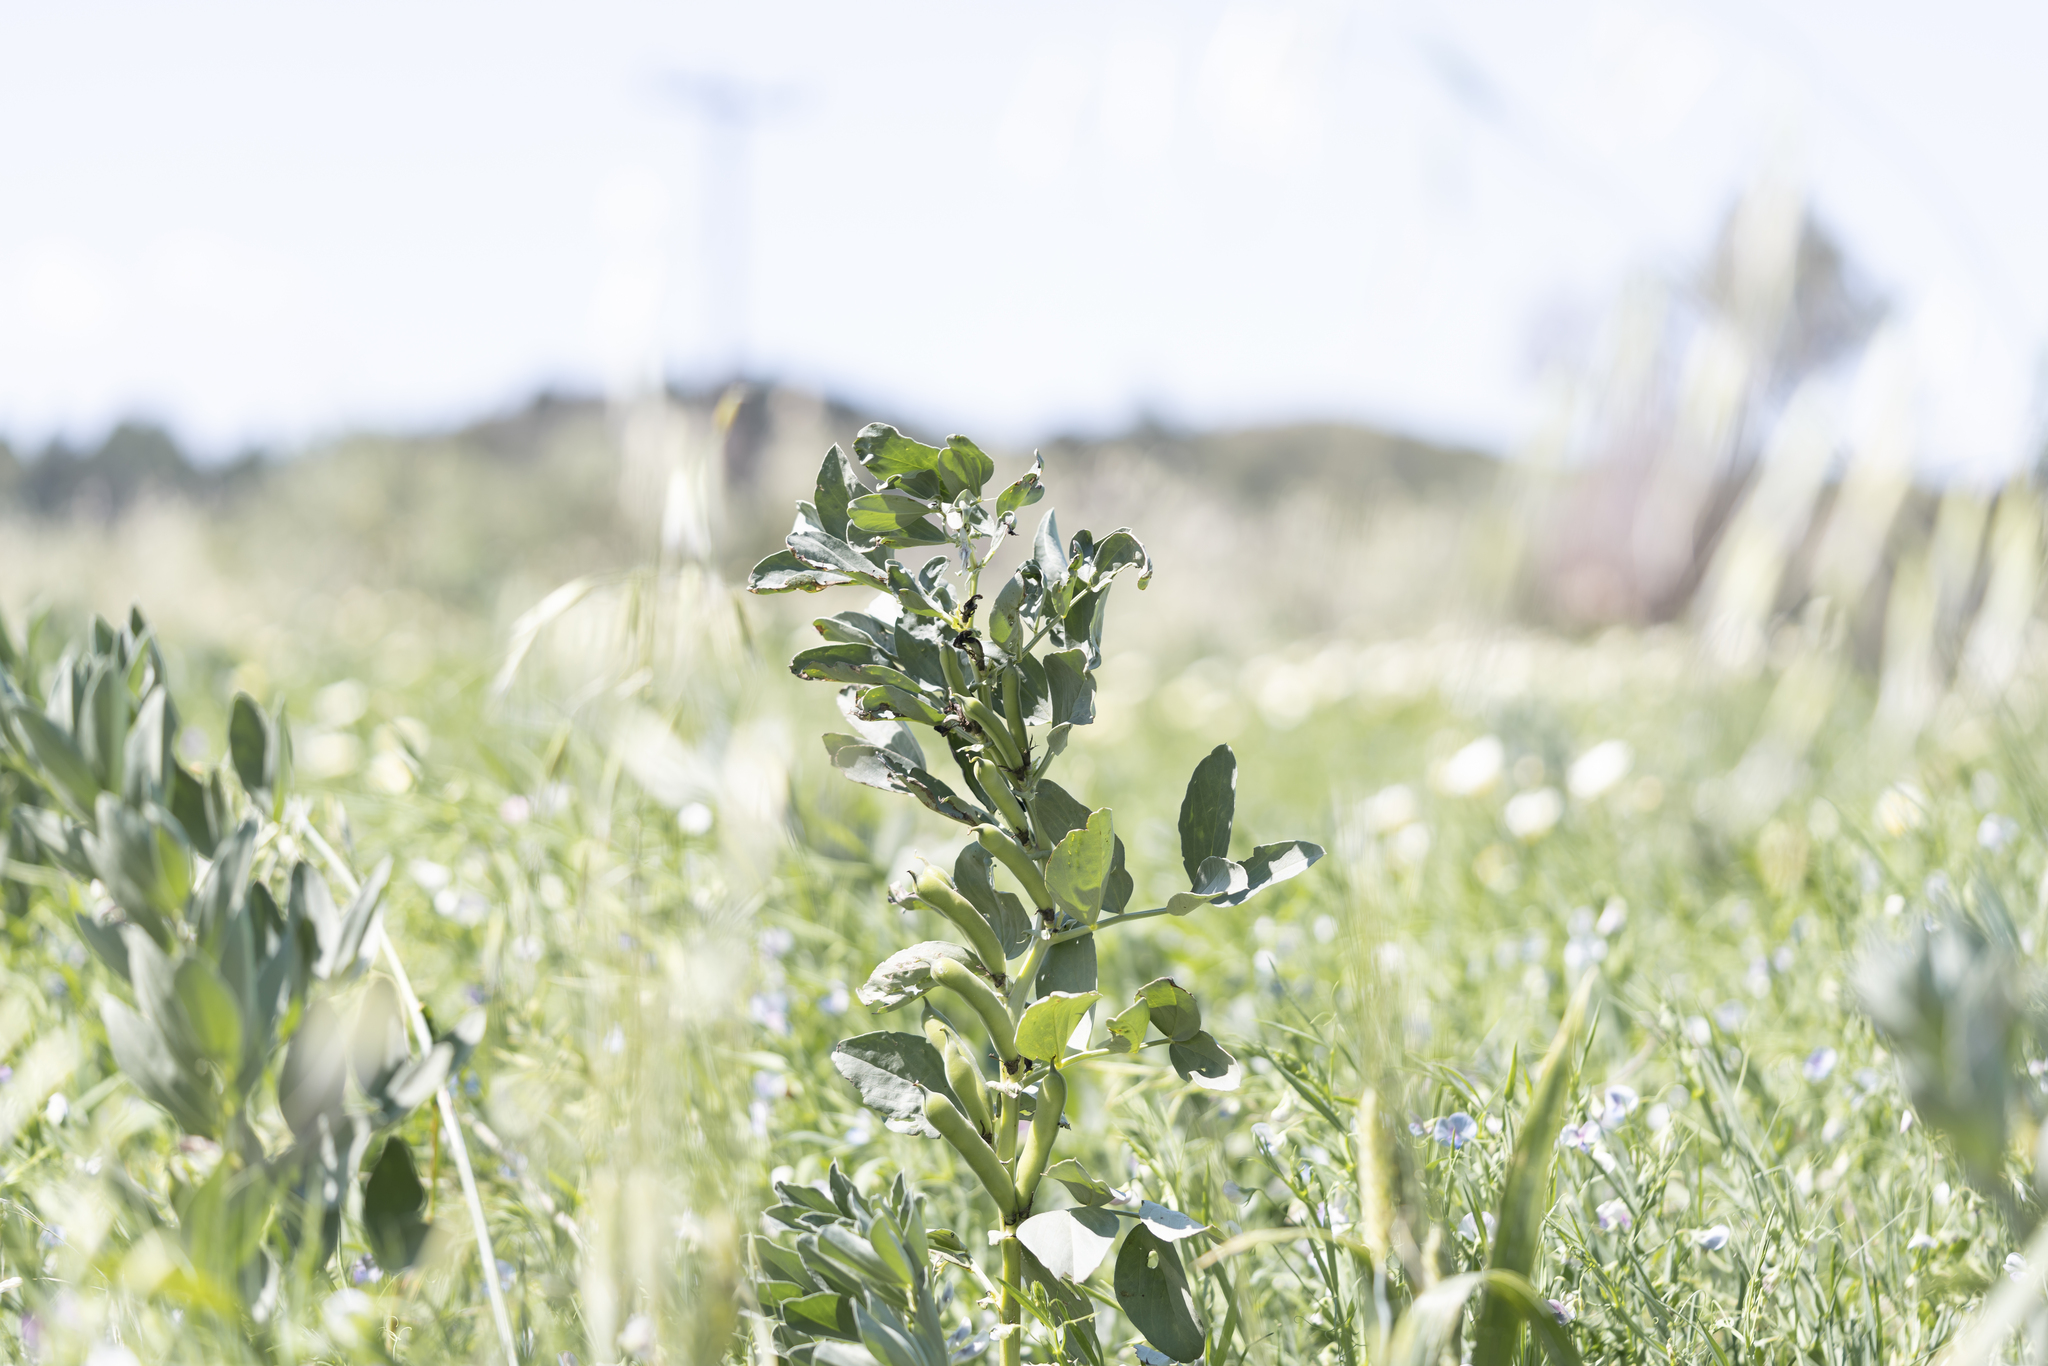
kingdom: Plantae
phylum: Tracheophyta
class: Magnoliopsida
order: Fabales
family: Fabaceae
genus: Vicia
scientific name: Vicia faba
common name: Broad bean
